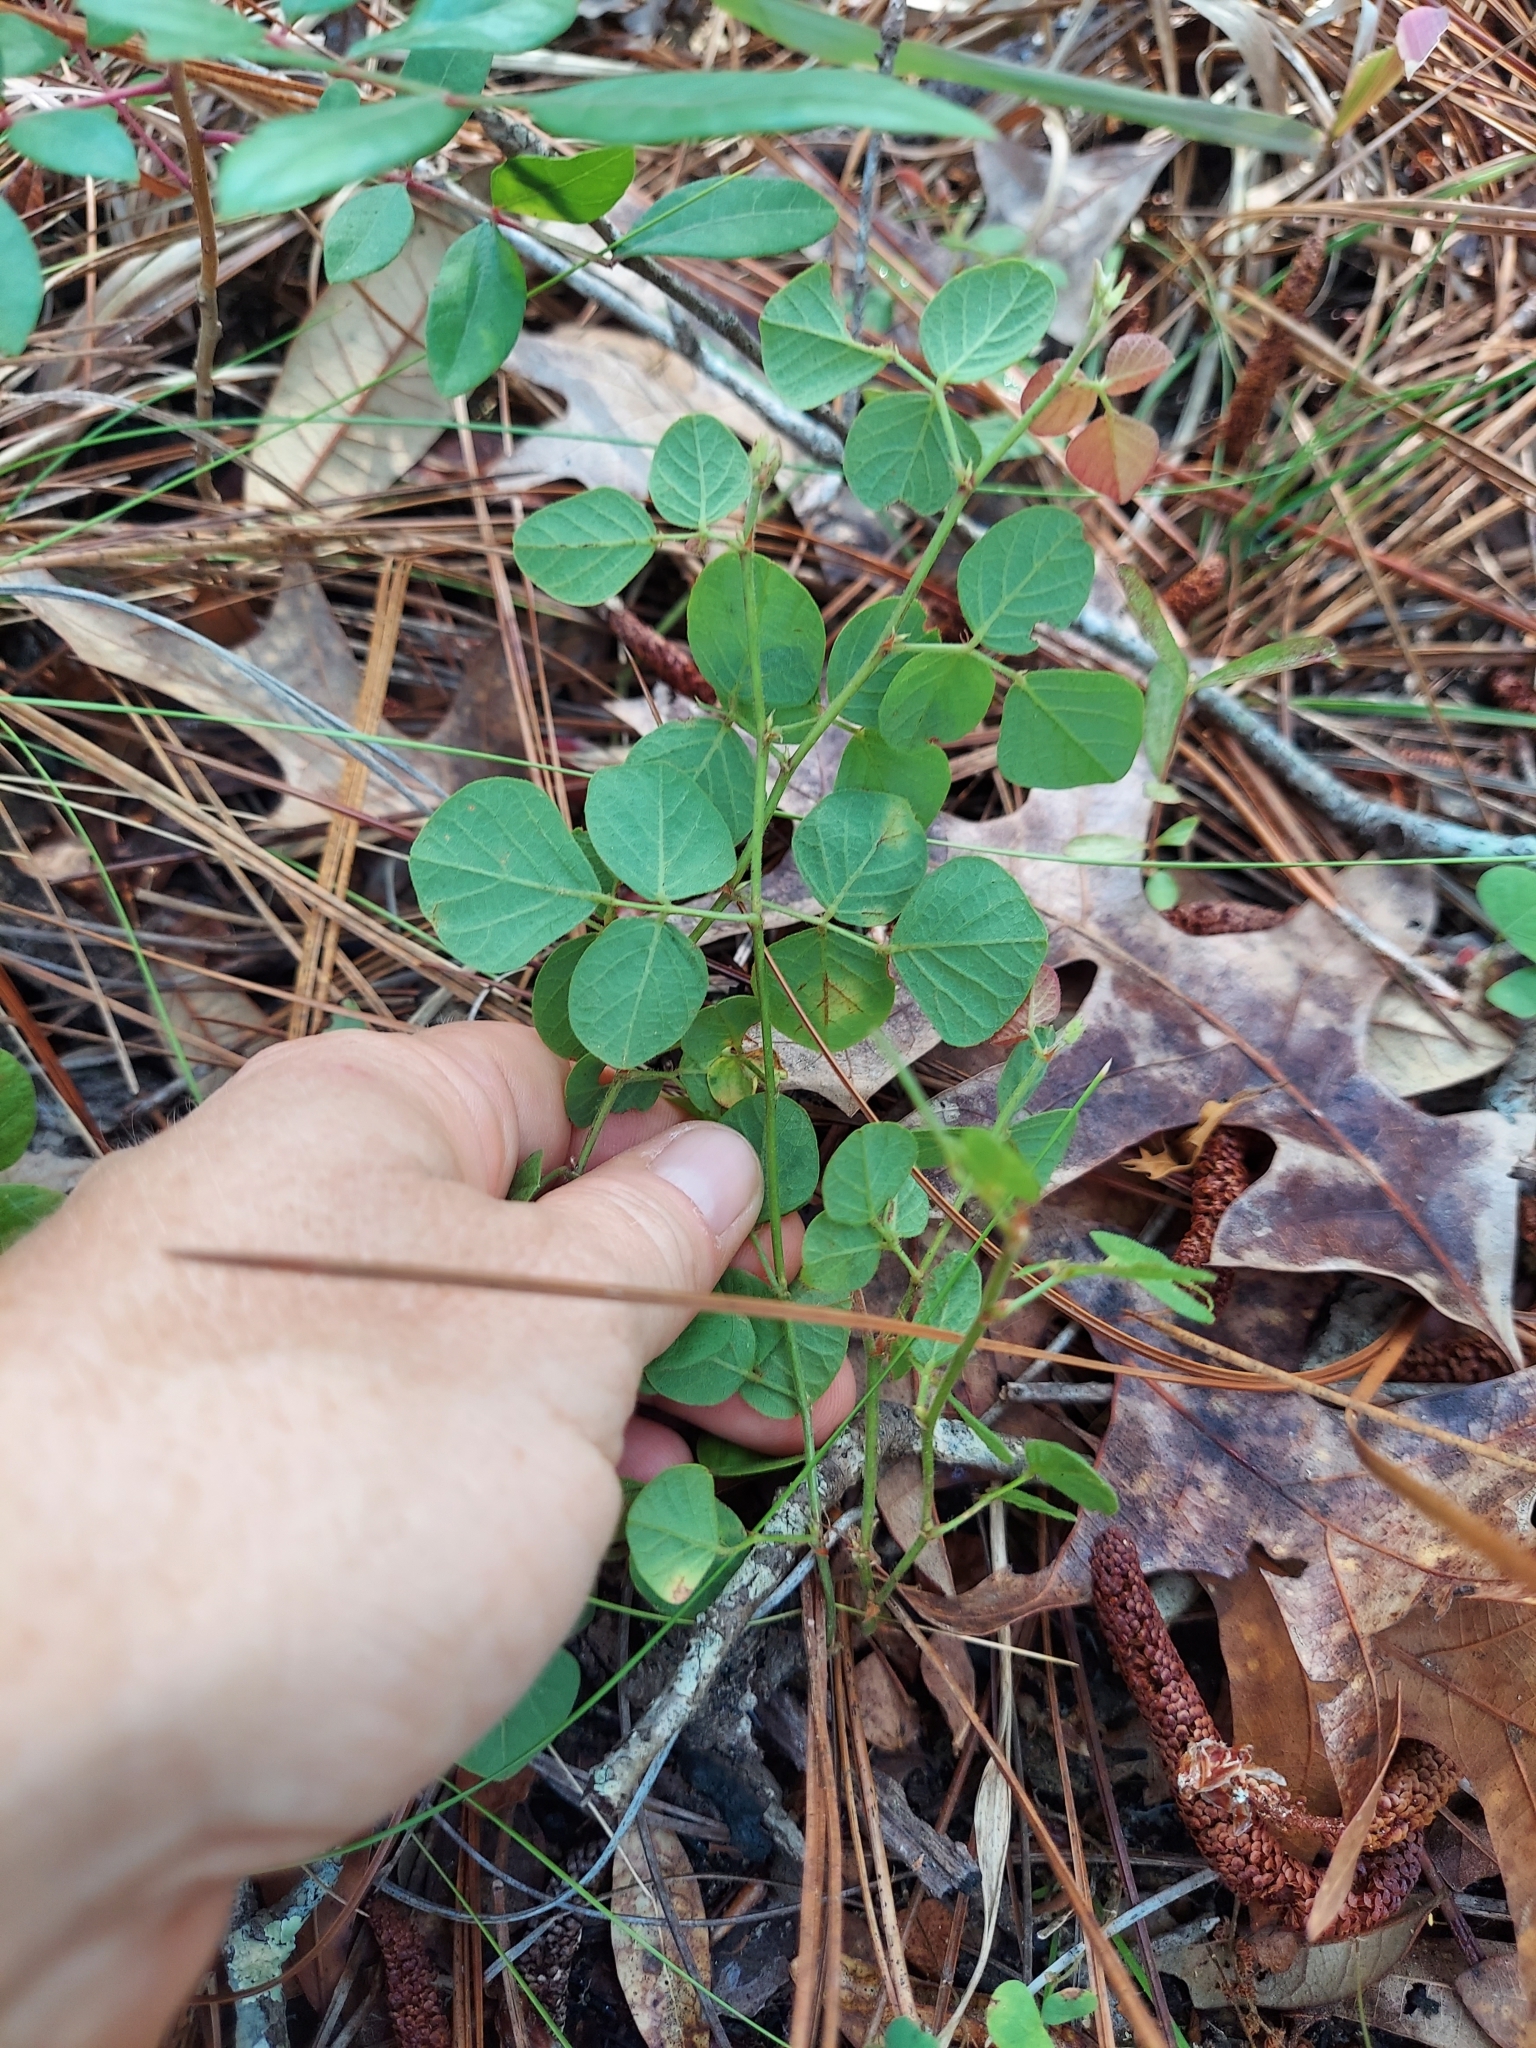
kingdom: Plantae
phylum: Tracheophyta
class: Magnoliopsida
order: Fabales
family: Fabaceae
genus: Rhynchosia
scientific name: Rhynchosia minima
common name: Least snoutbean
